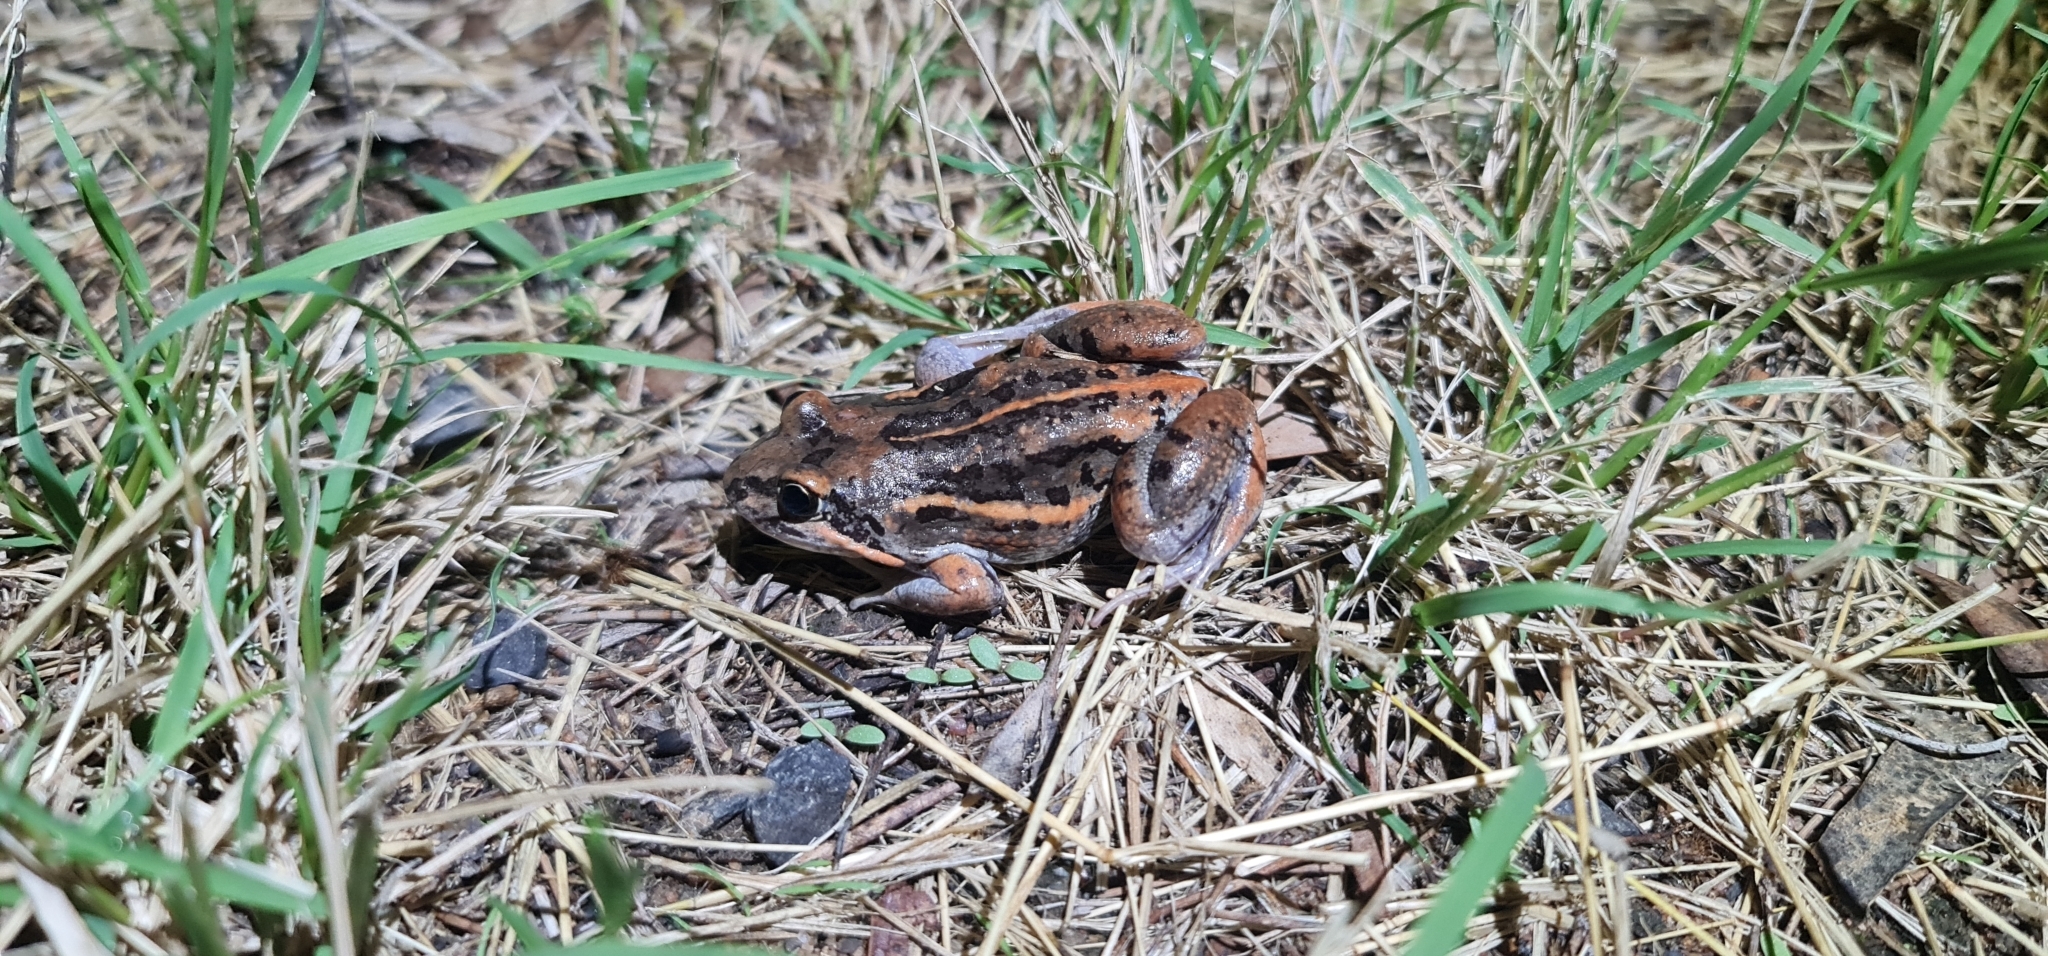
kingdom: Animalia
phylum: Chordata
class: Amphibia
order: Anura
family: Limnodynastidae
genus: Limnodynastes
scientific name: Limnodynastes salmini
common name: Salmon-striped frog
